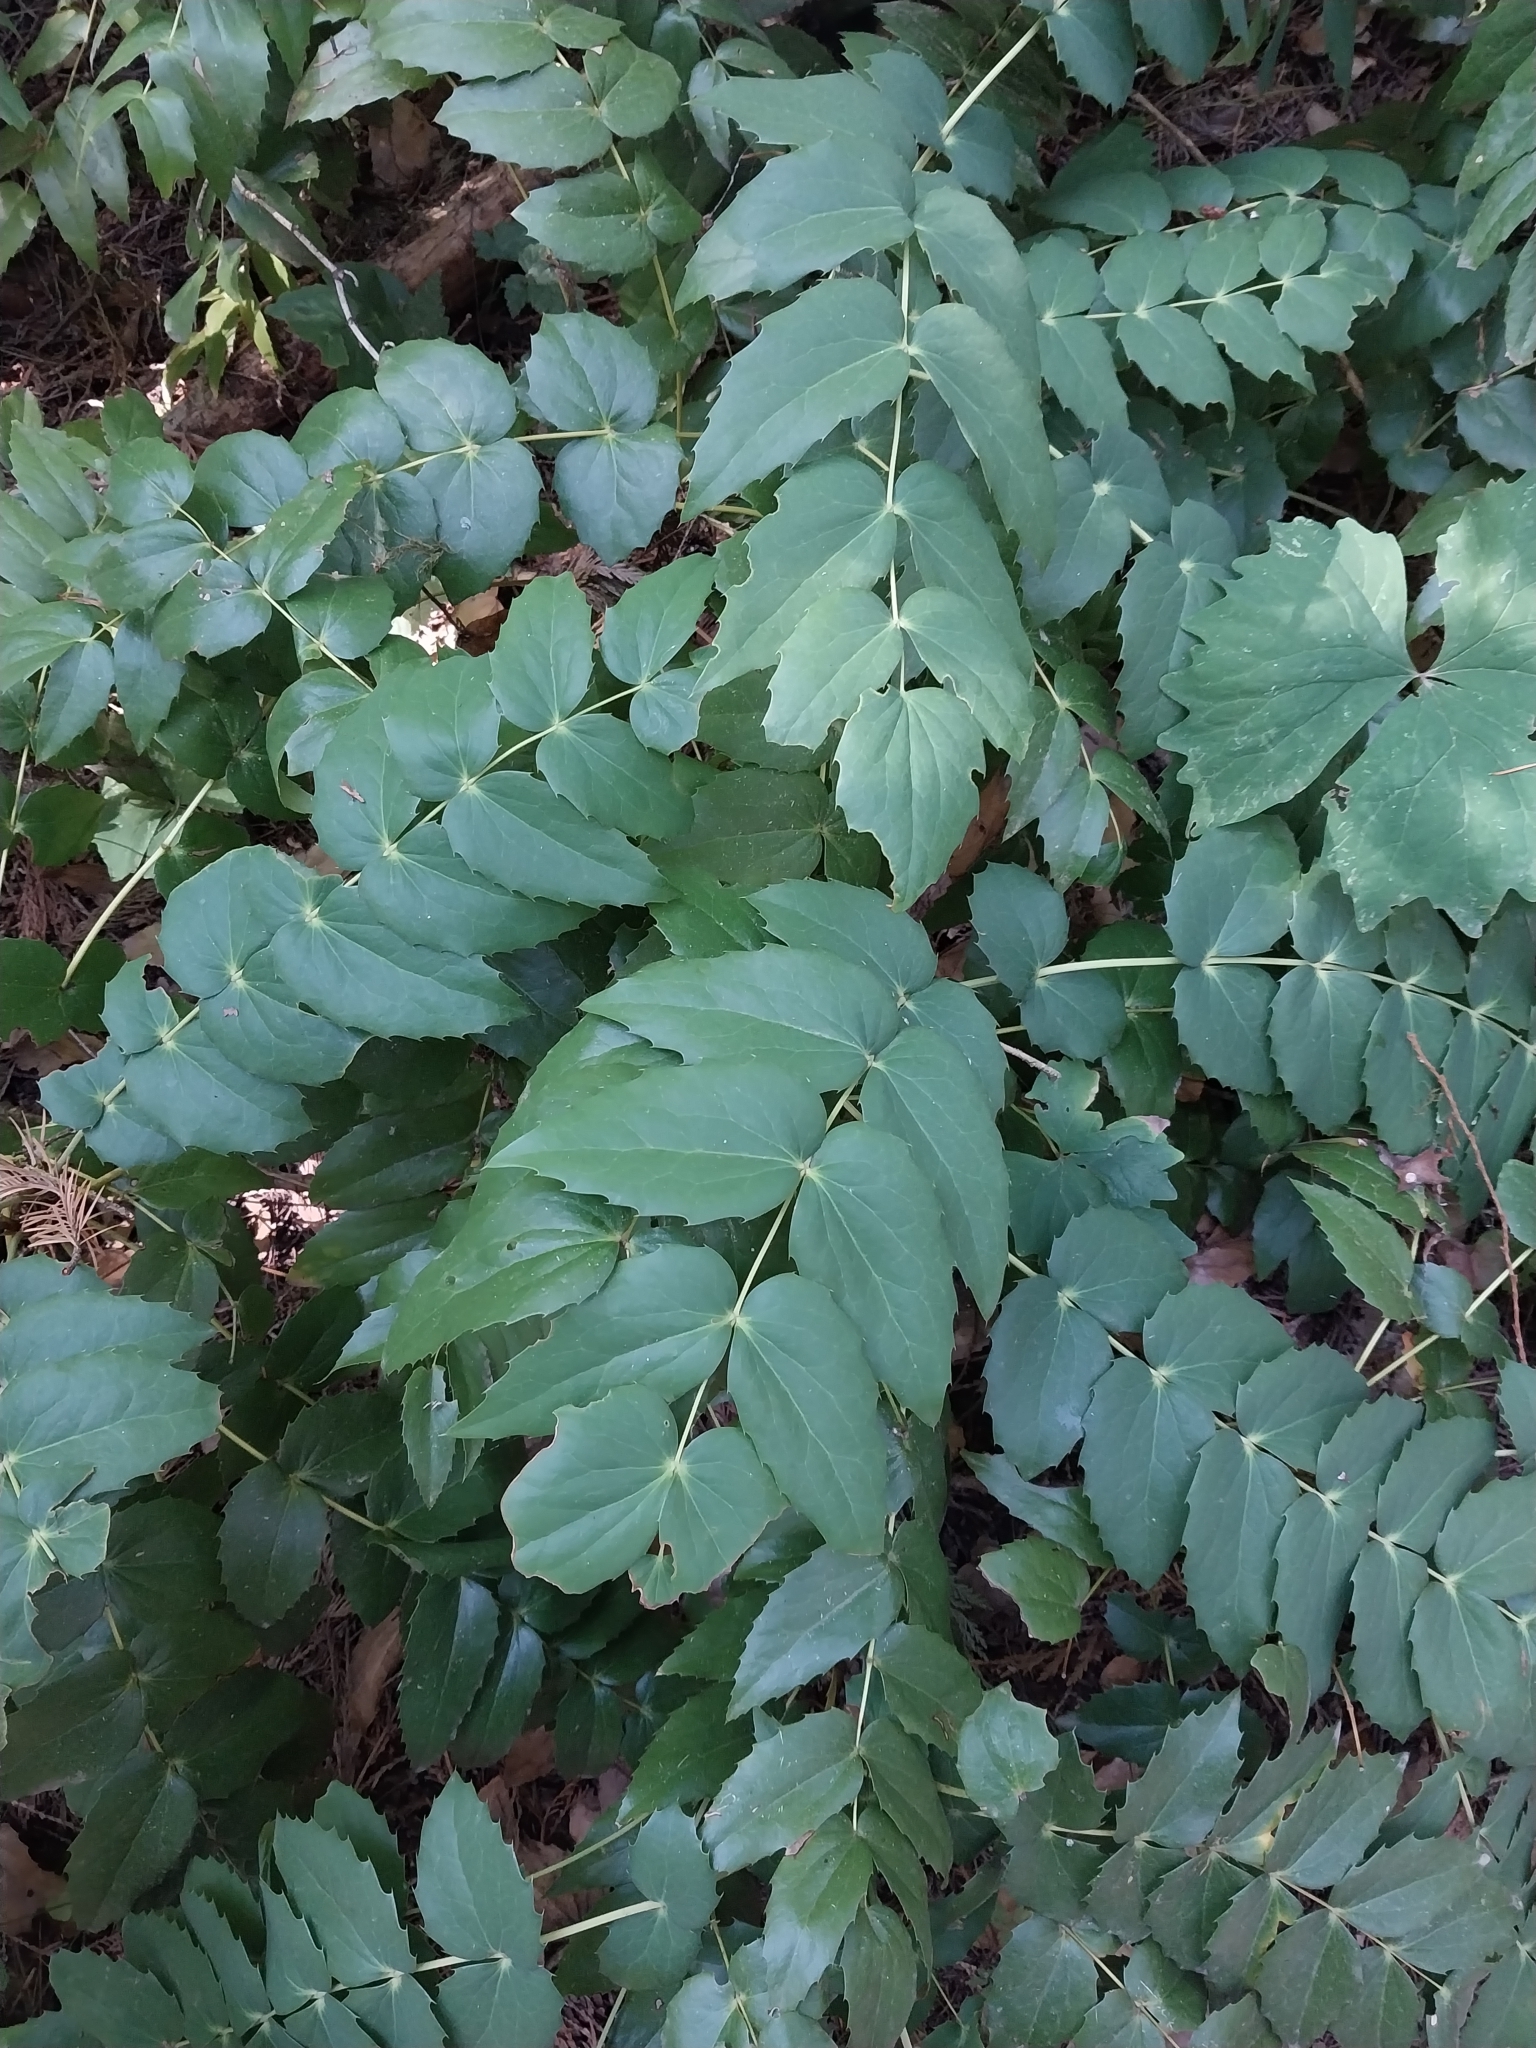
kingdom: Plantae
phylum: Tracheophyta
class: Magnoliopsida
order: Ranunculales
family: Berberidaceae
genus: Mahonia
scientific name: Mahonia nervosa
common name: Cascade oregon-grape
